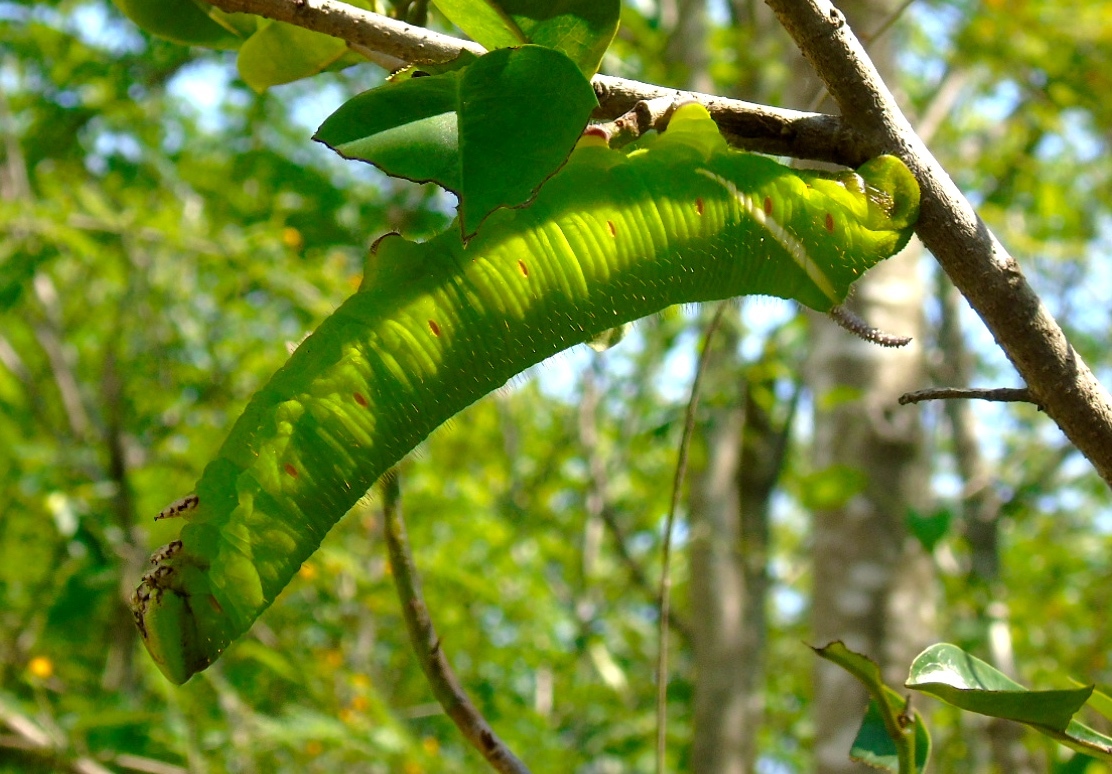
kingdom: Animalia
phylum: Arthropoda
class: Insecta
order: Lepidoptera
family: Sphingidae
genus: Cocytius
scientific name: Cocytius antaeus
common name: Giant sphinx
